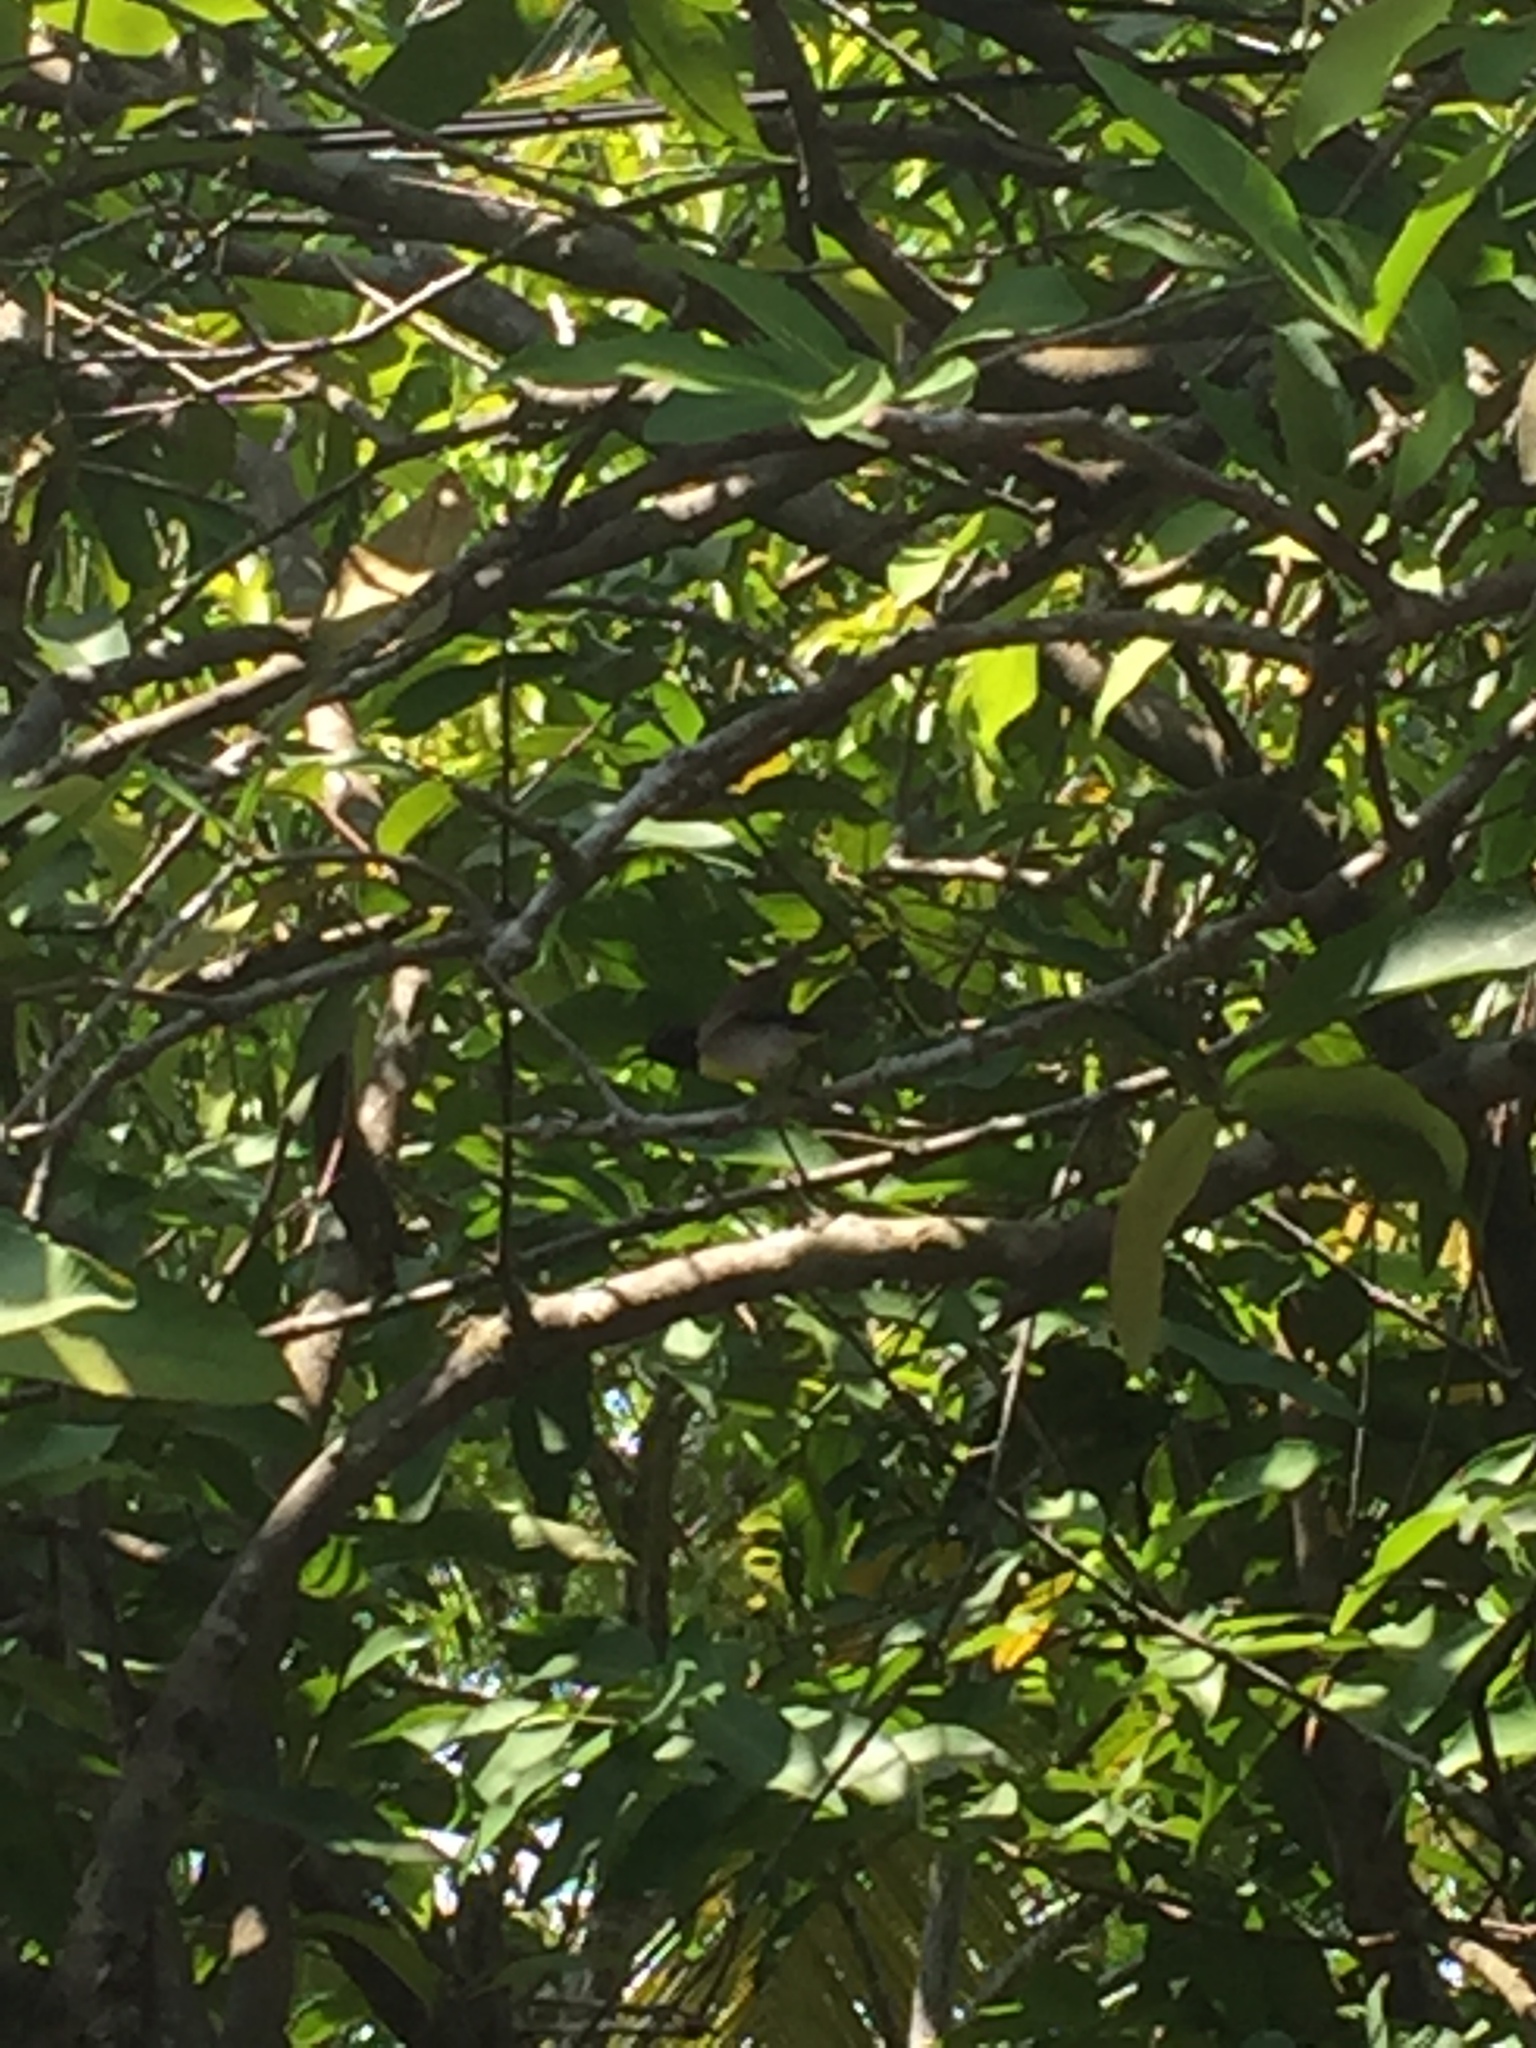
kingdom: Animalia
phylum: Chordata
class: Aves
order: Passeriformes
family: Nectariniidae
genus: Leptocoma
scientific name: Leptocoma zeylonica
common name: Purple-rumped sunbird
